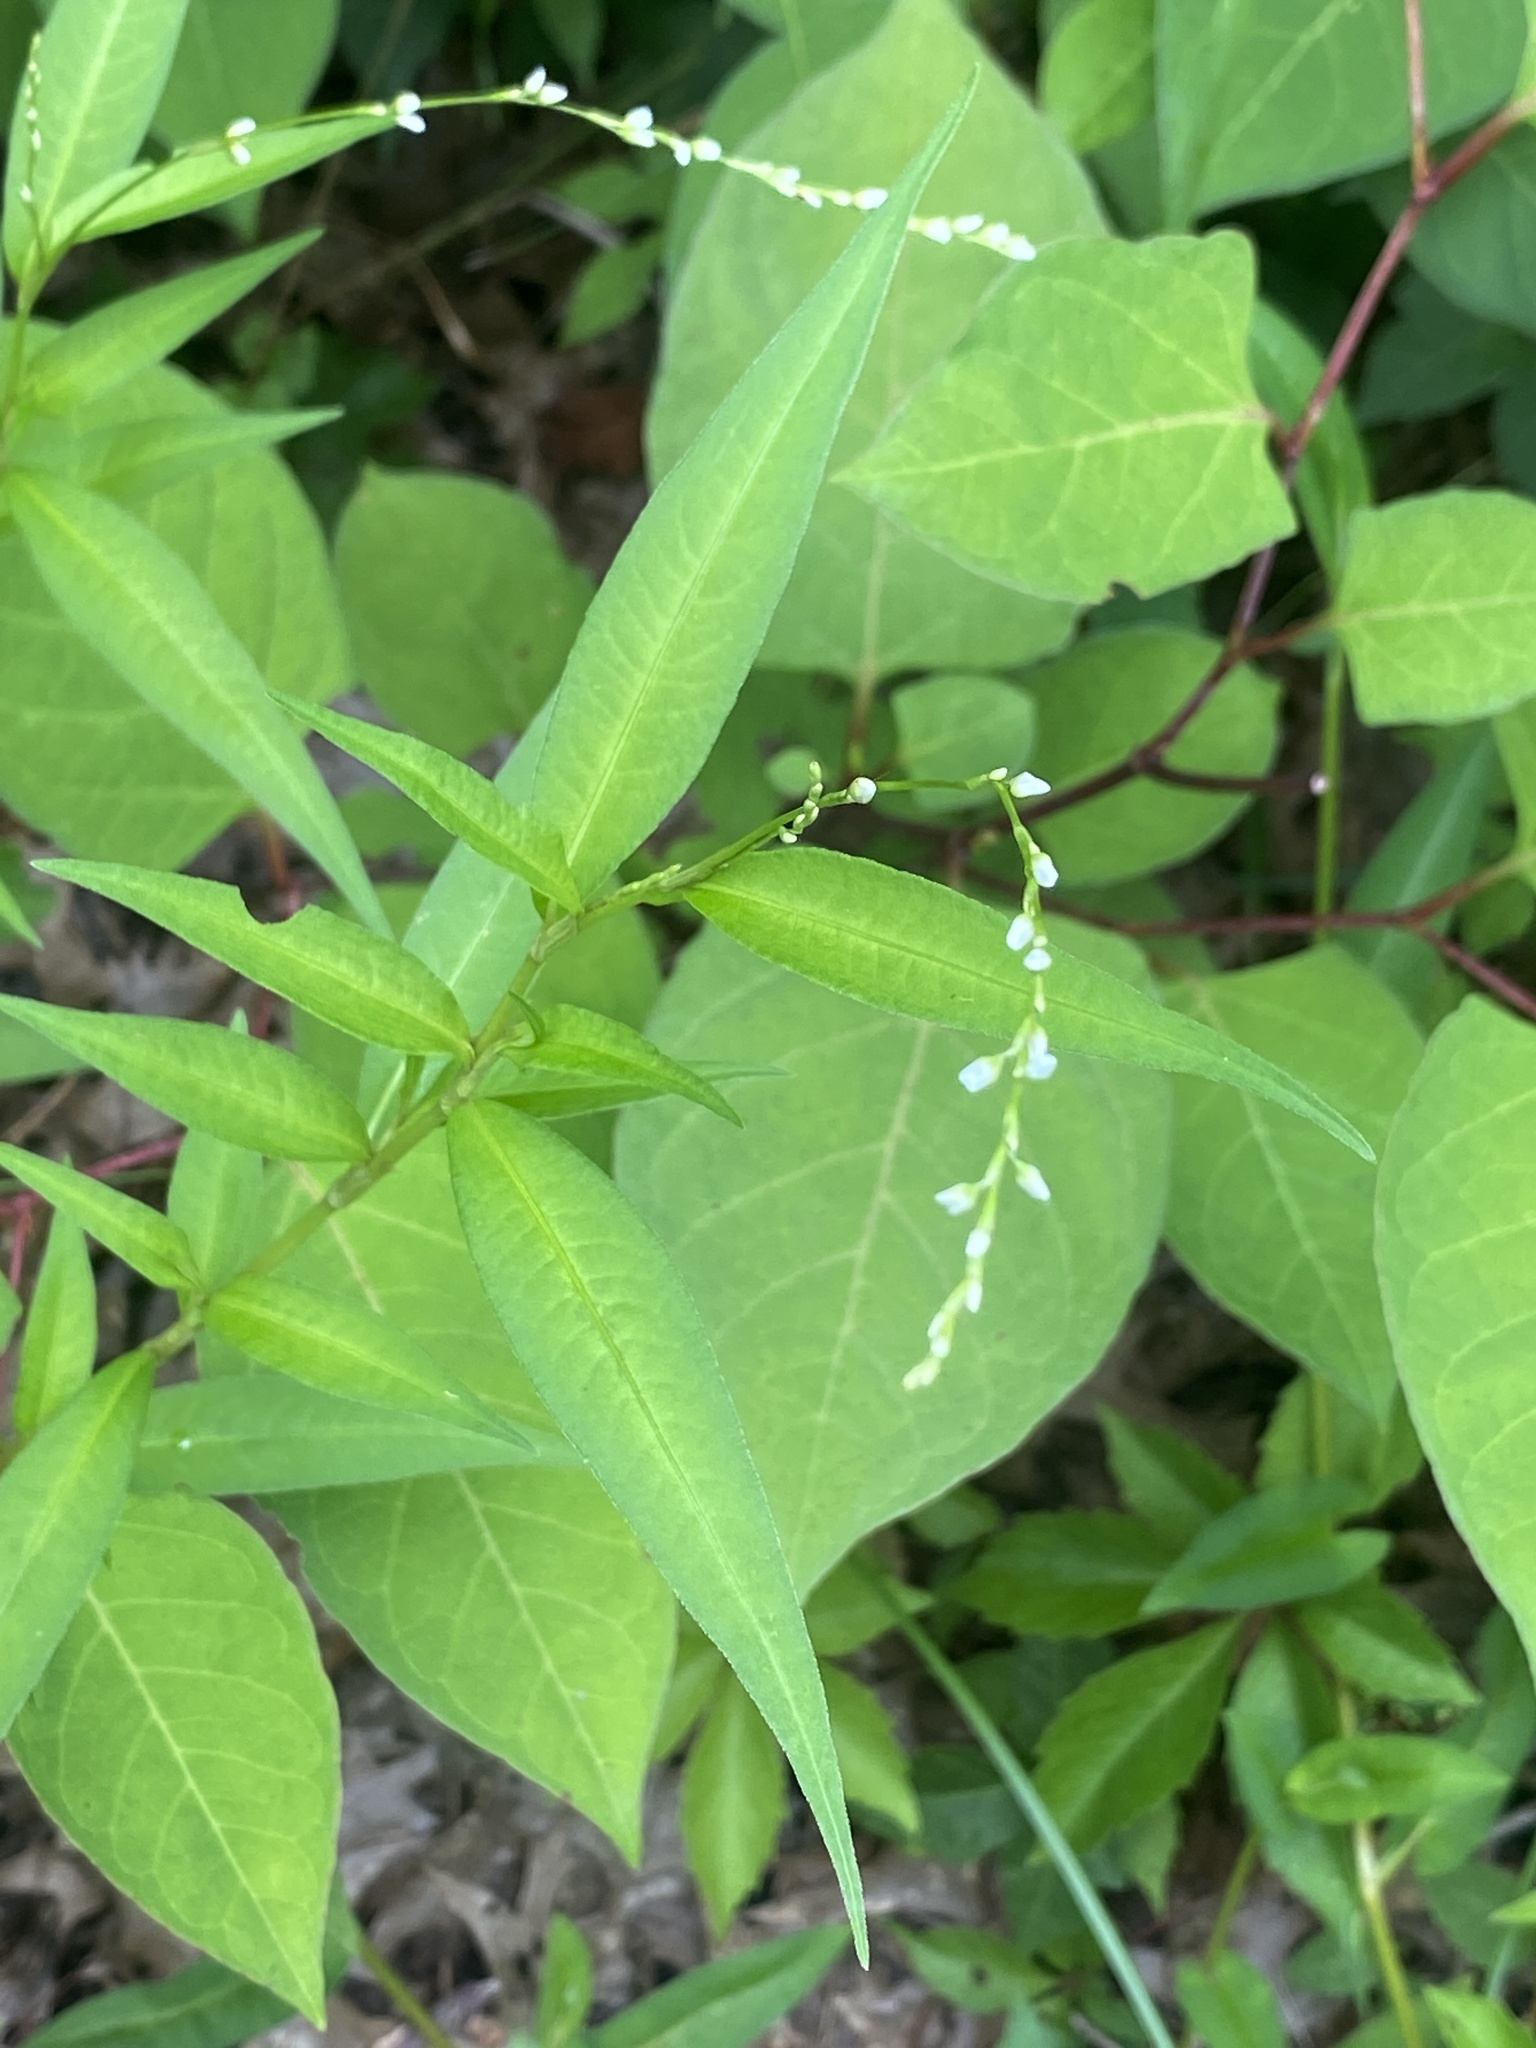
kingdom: Plantae
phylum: Tracheophyta
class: Magnoliopsida
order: Caryophyllales
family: Polygonaceae
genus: Persicaria
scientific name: Persicaria punctata
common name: Dotted smartweed
